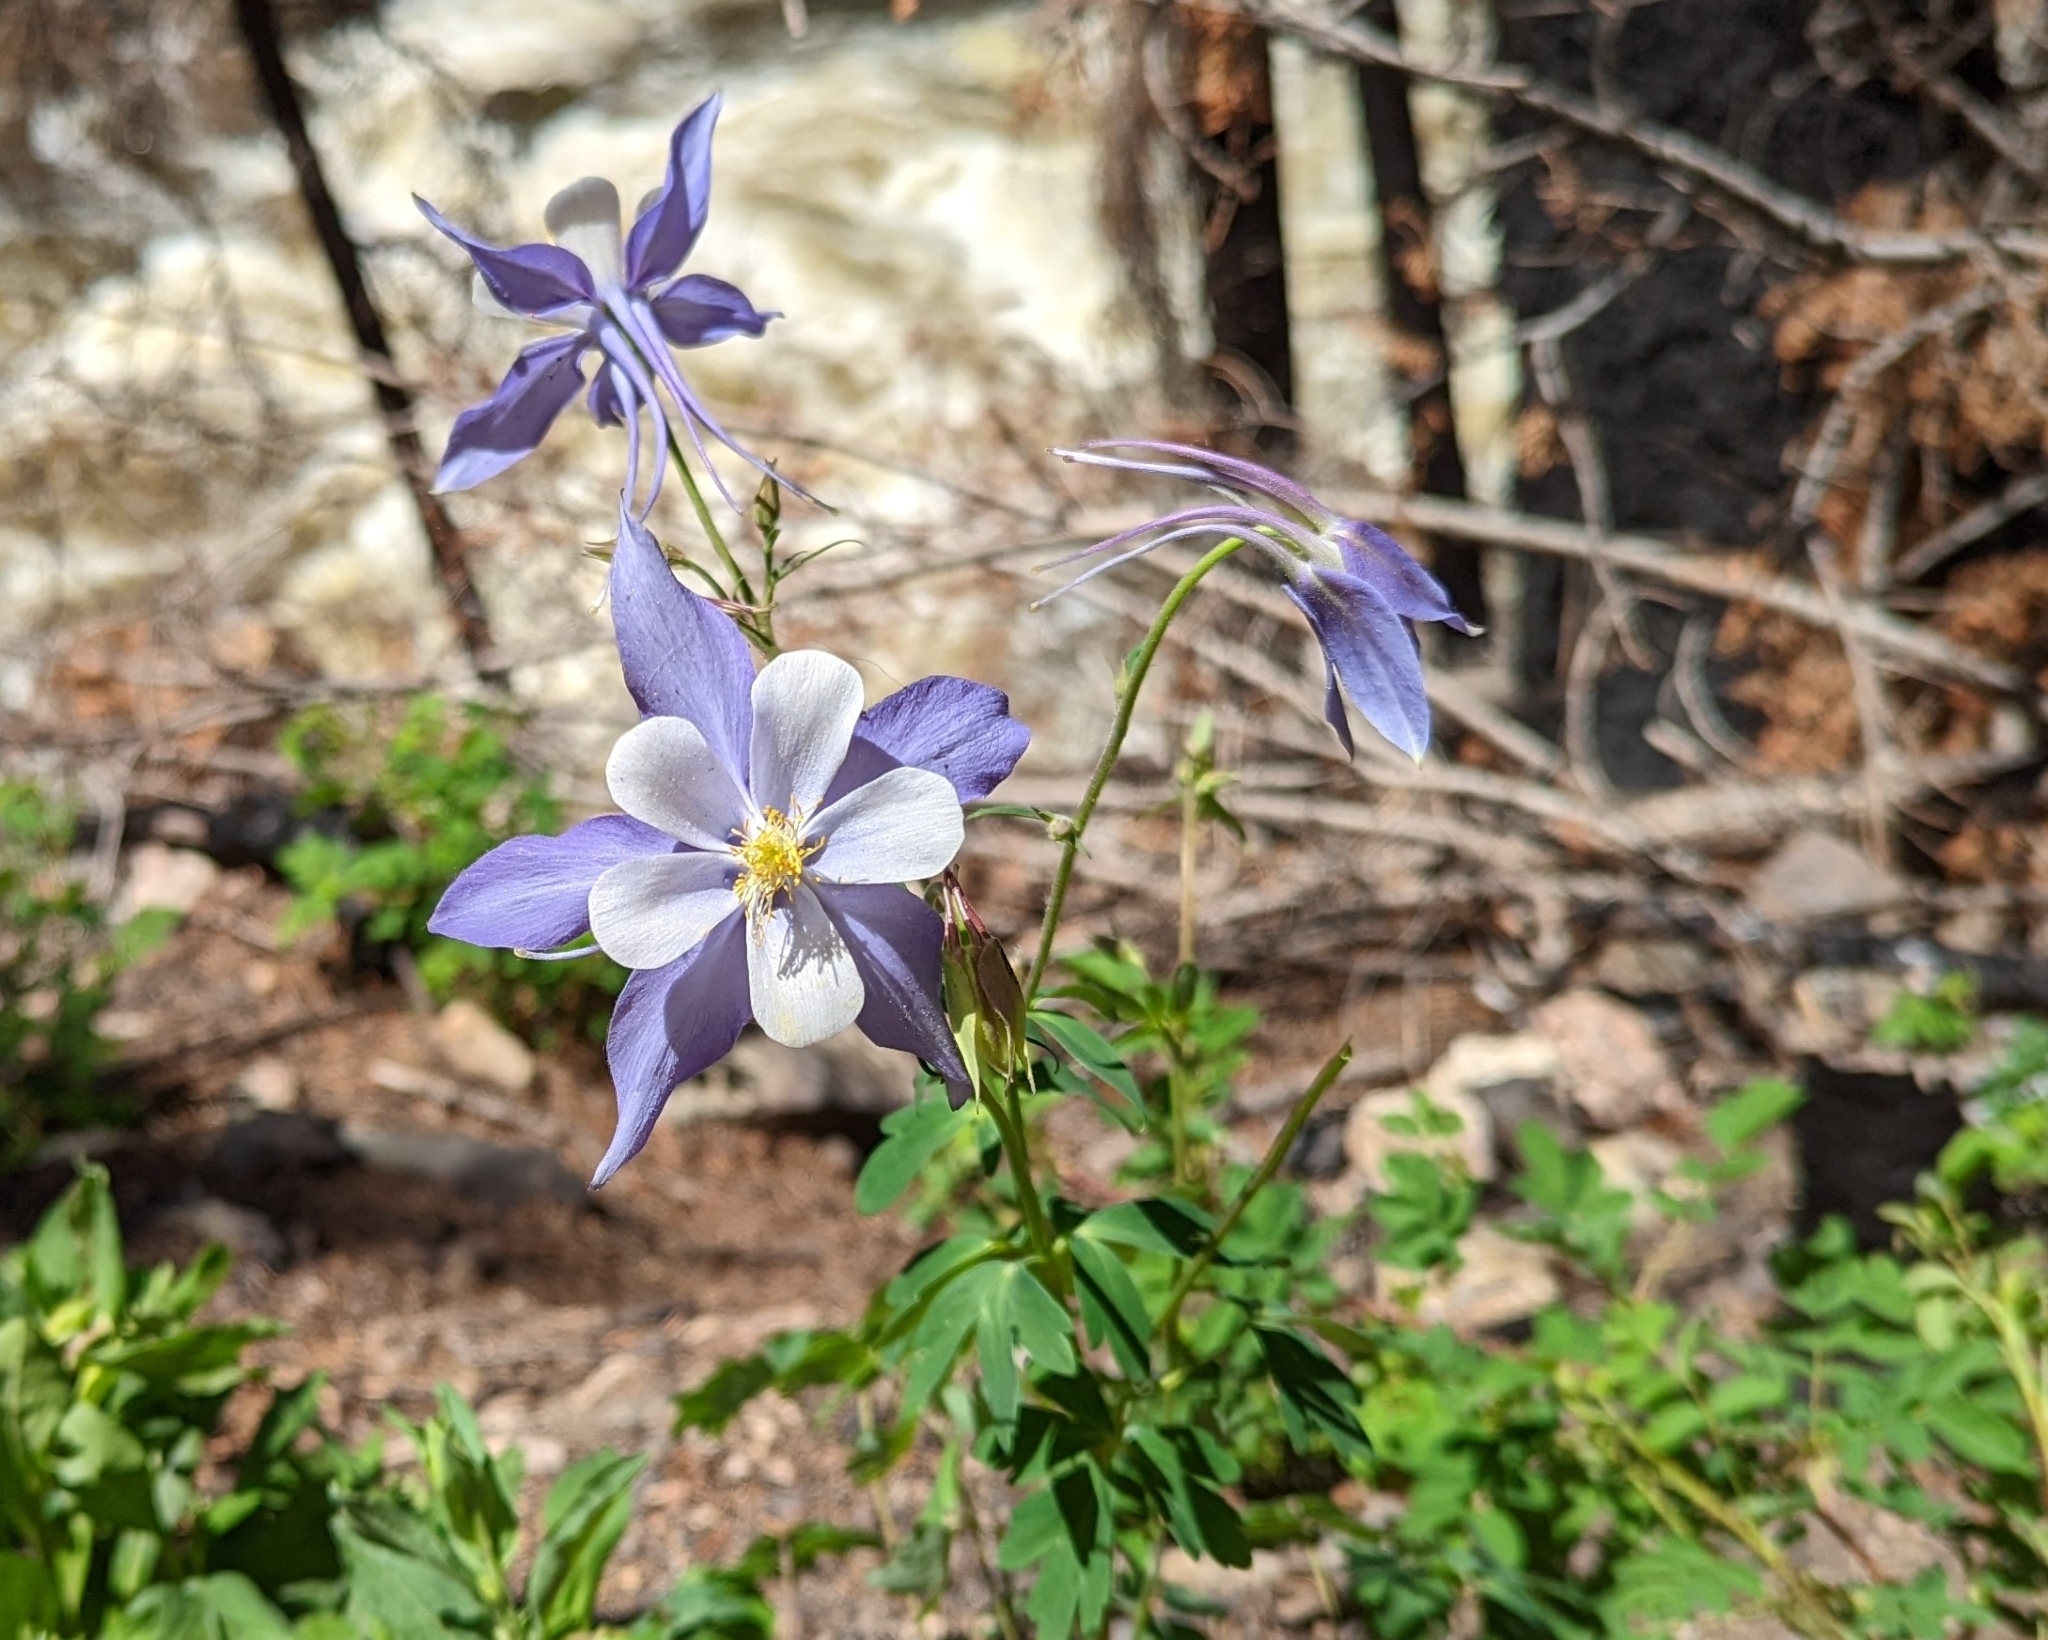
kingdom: Plantae
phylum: Tracheophyta
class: Magnoliopsida
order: Ranunculales
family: Ranunculaceae
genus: Aquilegia
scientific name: Aquilegia coerulea
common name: Rocky mountain columbine
